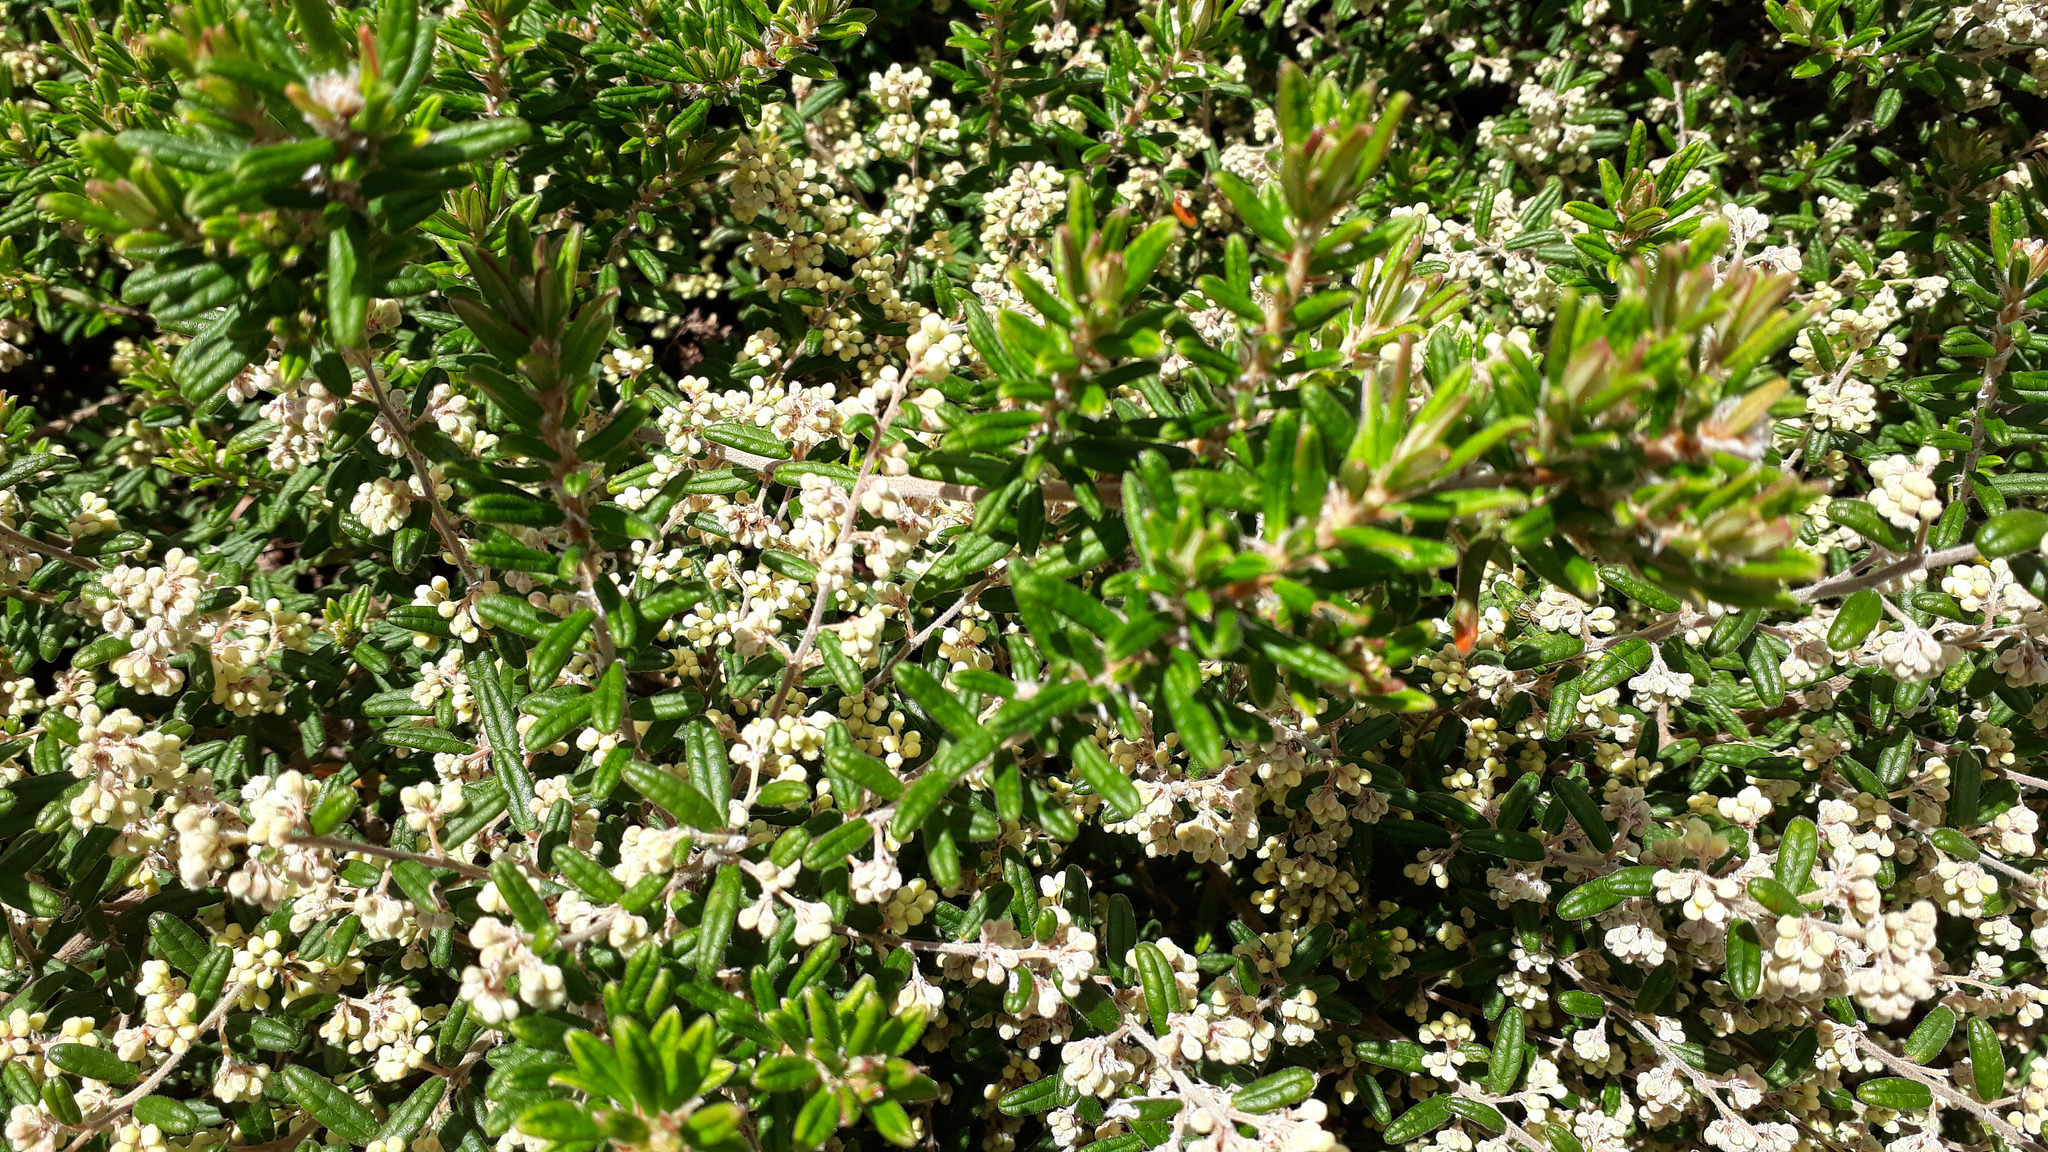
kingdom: Plantae
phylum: Tracheophyta
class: Magnoliopsida
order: Rosales
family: Rhamnaceae
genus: Pomaderris
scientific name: Pomaderris phylicifolia
